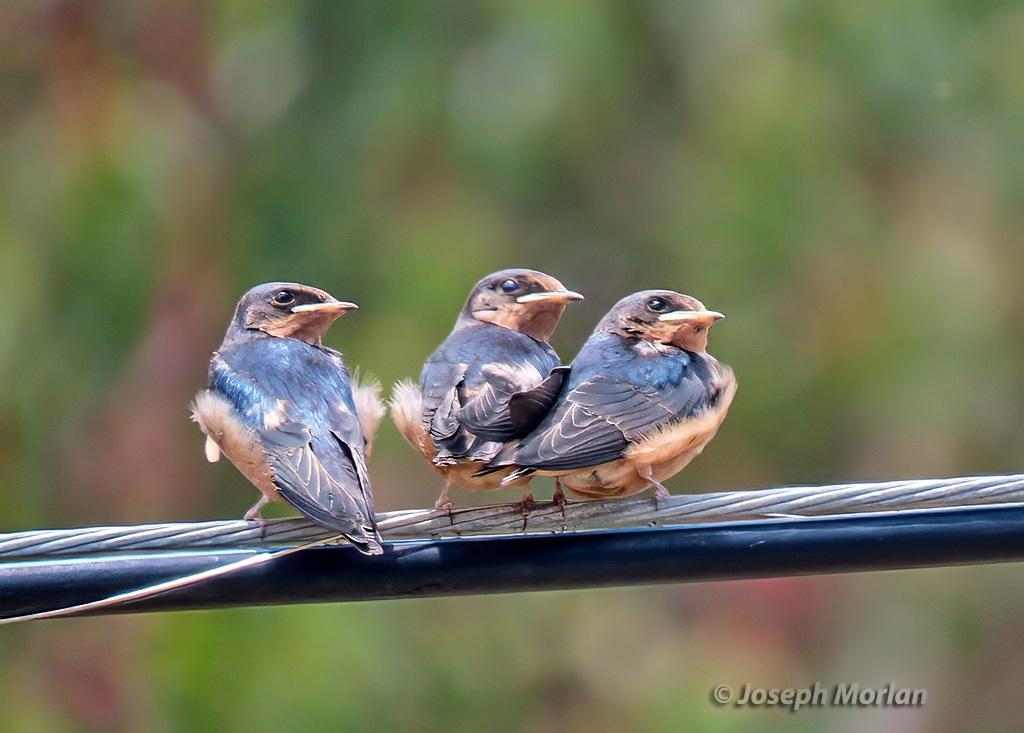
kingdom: Animalia
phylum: Chordata
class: Aves
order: Passeriformes
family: Hirundinidae
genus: Hirundo
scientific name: Hirundo rustica
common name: Barn swallow
